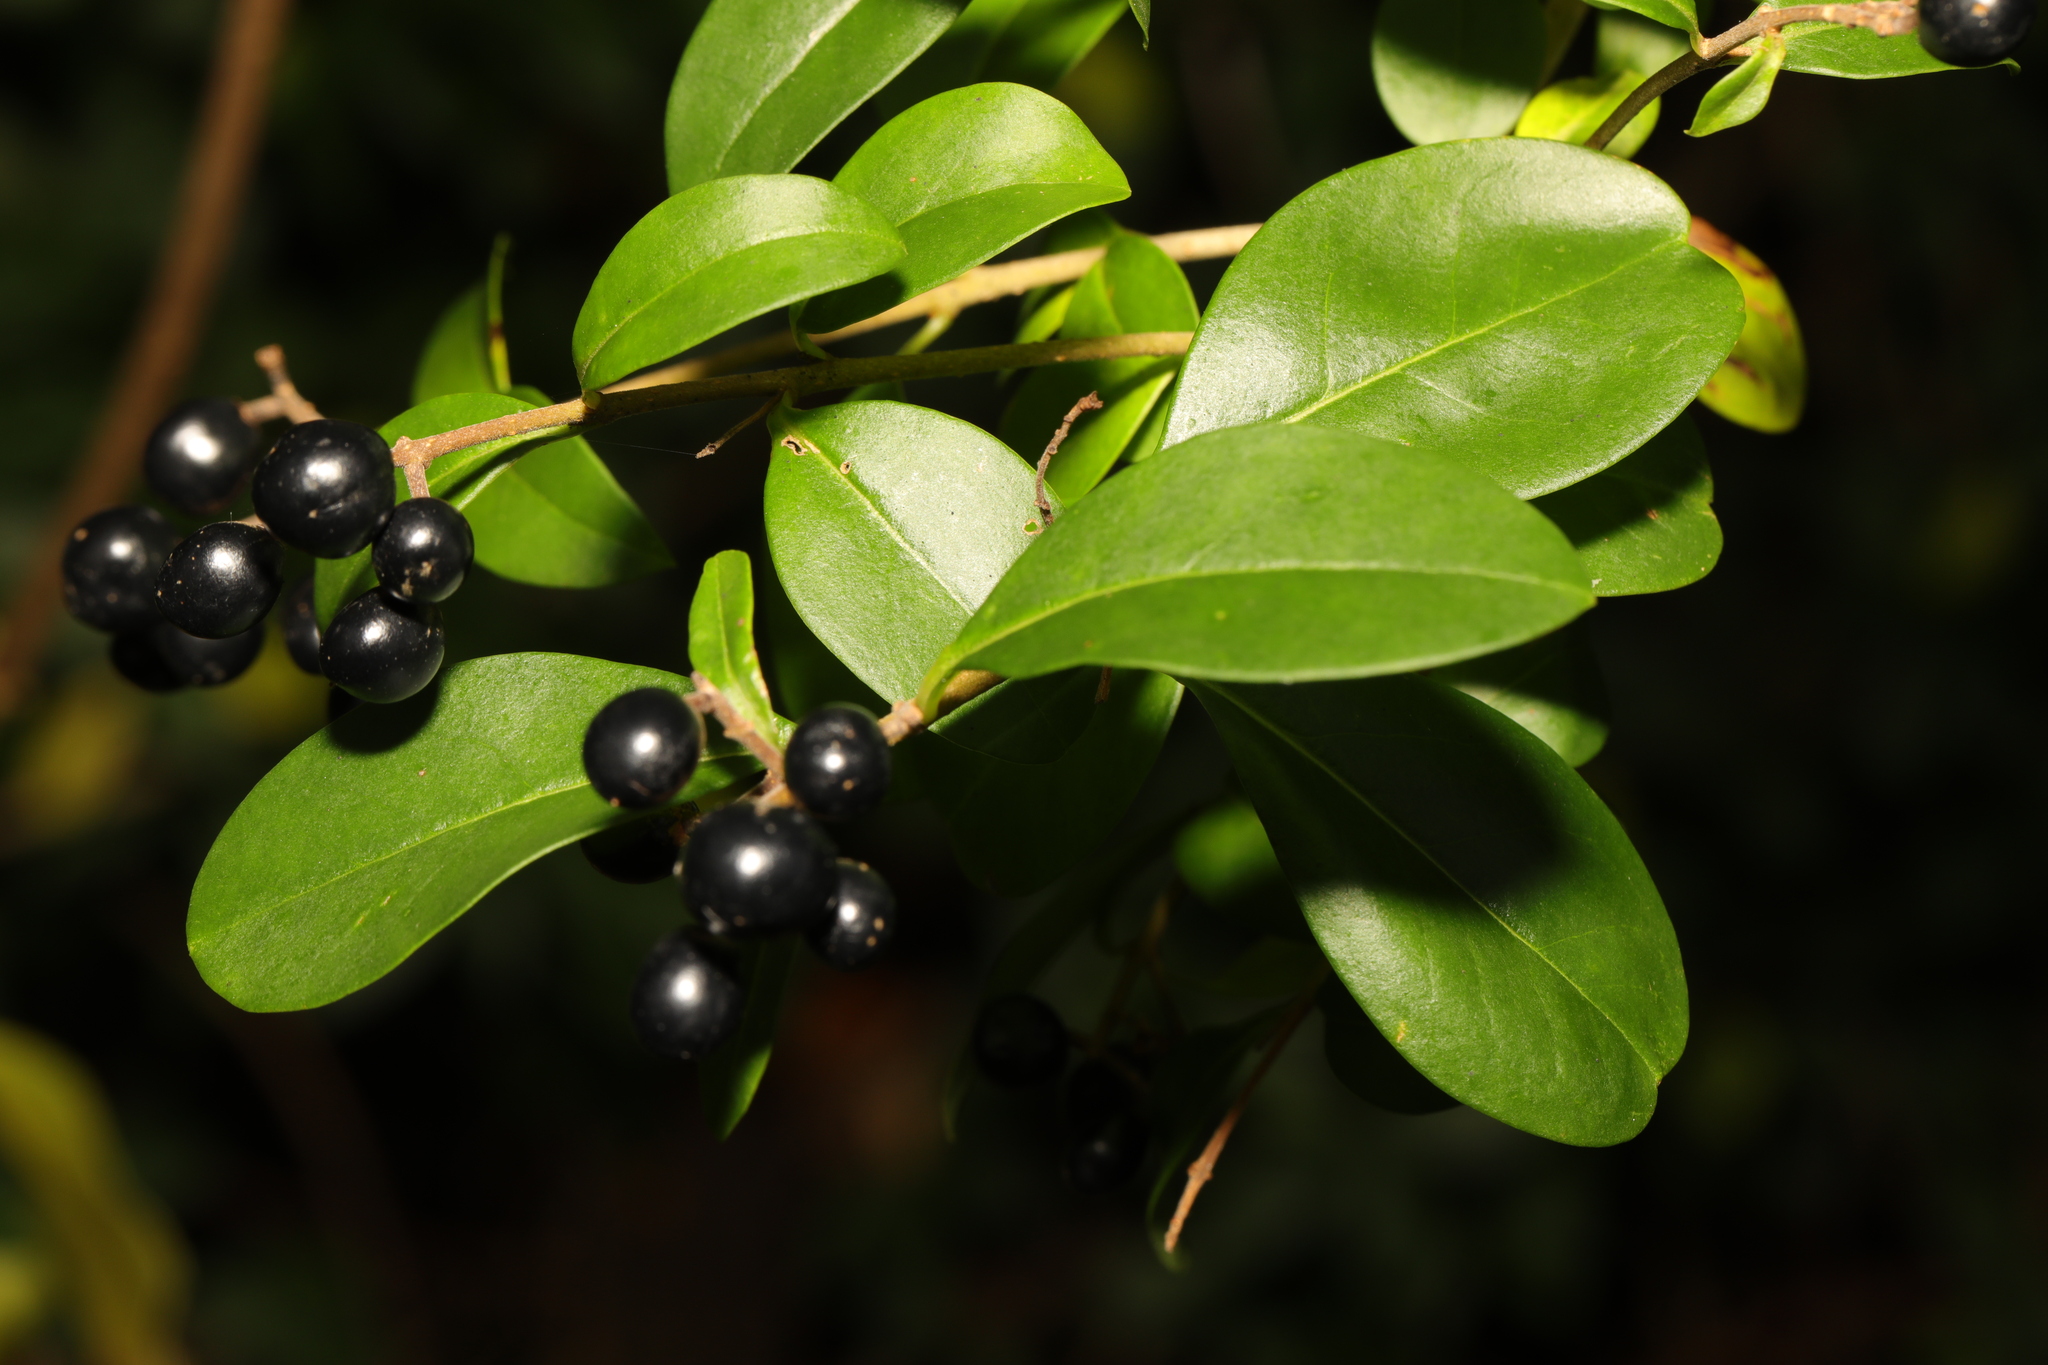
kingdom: Plantae
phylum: Tracheophyta
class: Magnoliopsida
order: Lamiales
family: Oleaceae
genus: Ligustrum
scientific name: Ligustrum vulgare
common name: Wild privet
